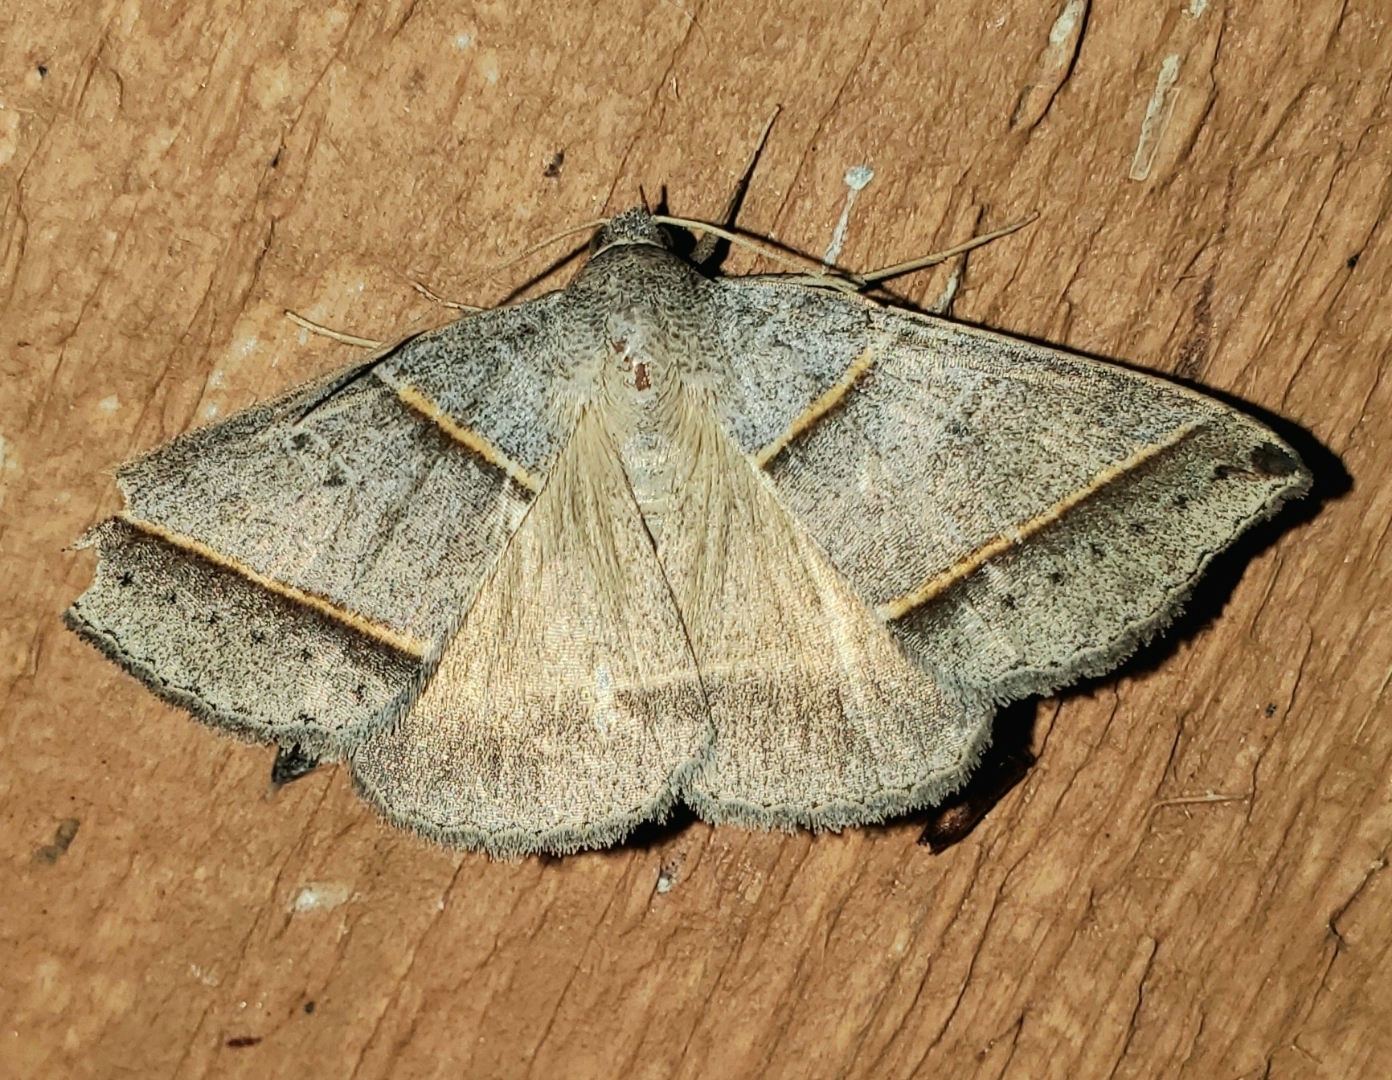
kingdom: Animalia
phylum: Arthropoda
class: Insecta
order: Lepidoptera
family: Erebidae
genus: Ptichodis
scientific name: Ptichodis vinculum
